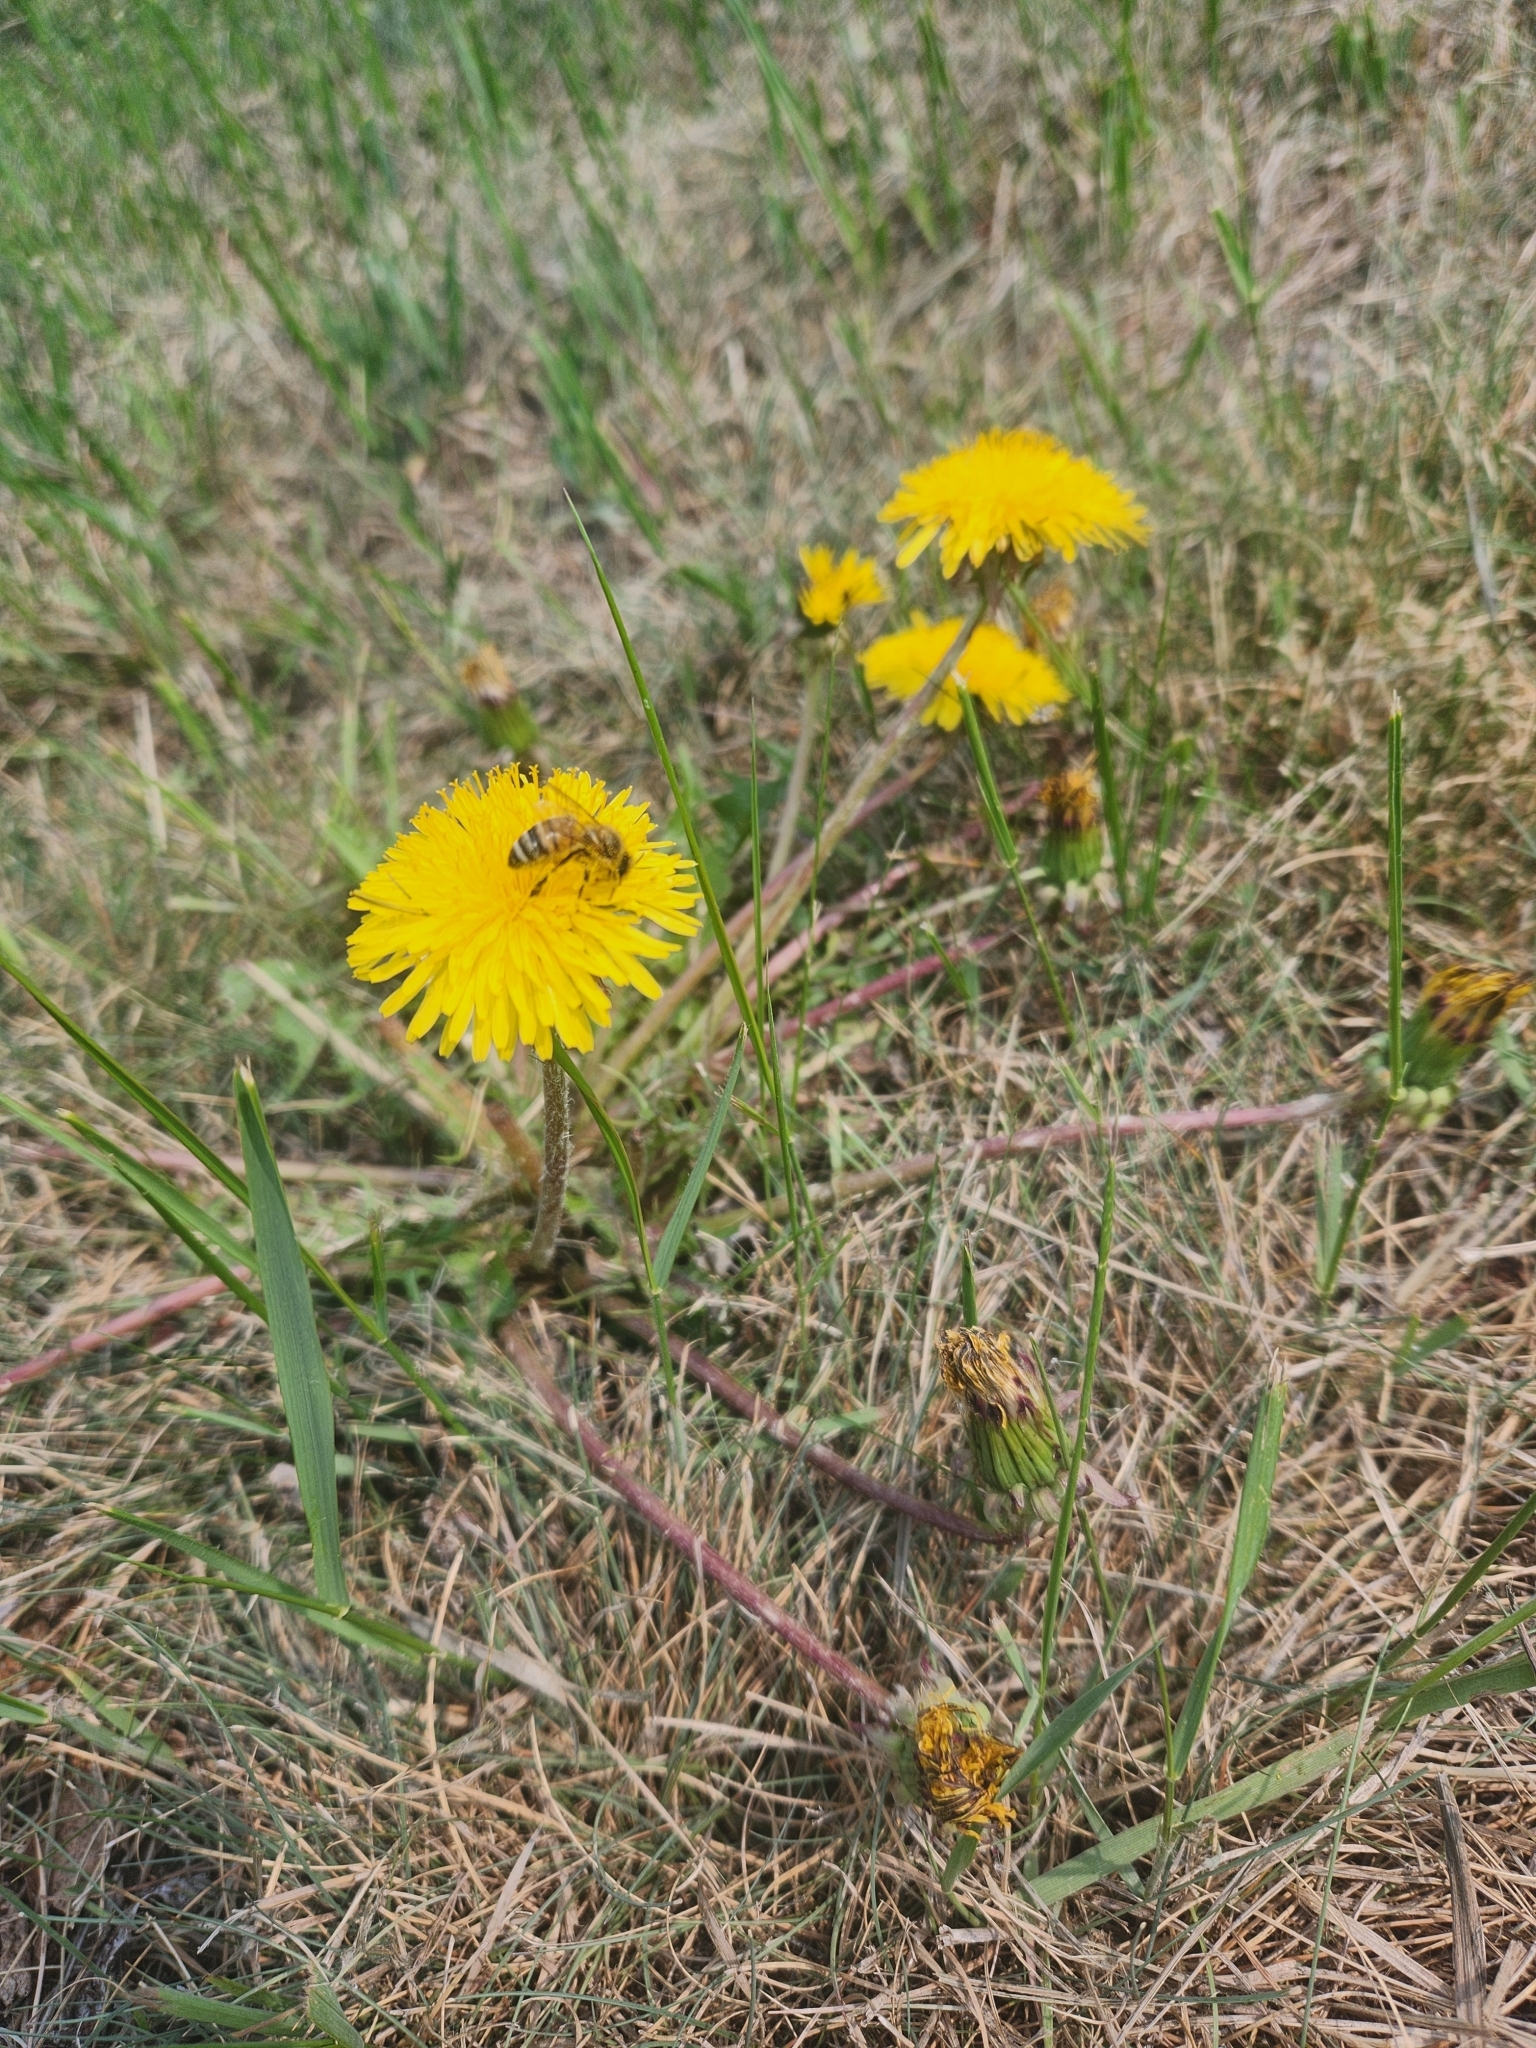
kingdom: Animalia
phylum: Arthropoda
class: Insecta
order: Hymenoptera
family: Apidae
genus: Apis
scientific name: Apis mellifera
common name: Honey bee
